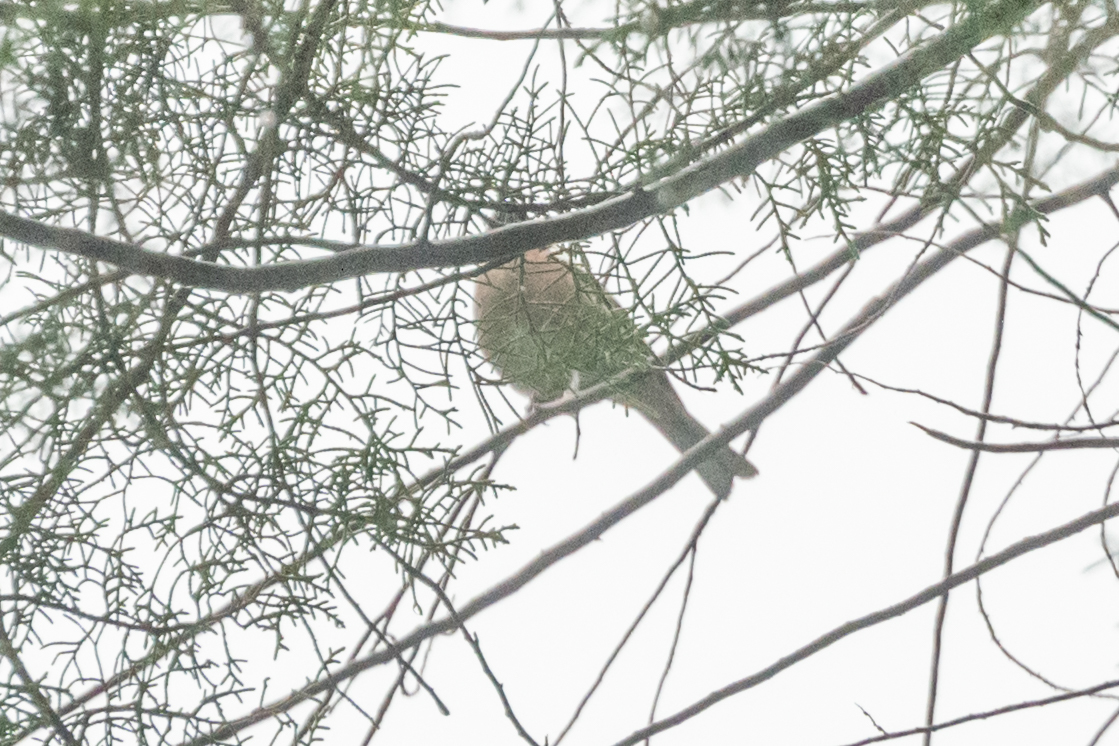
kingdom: Animalia
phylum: Chordata
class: Aves
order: Passeriformes
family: Fringillidae
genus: Fringilla
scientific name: Fringilla coelebs
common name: Common chaffinch
